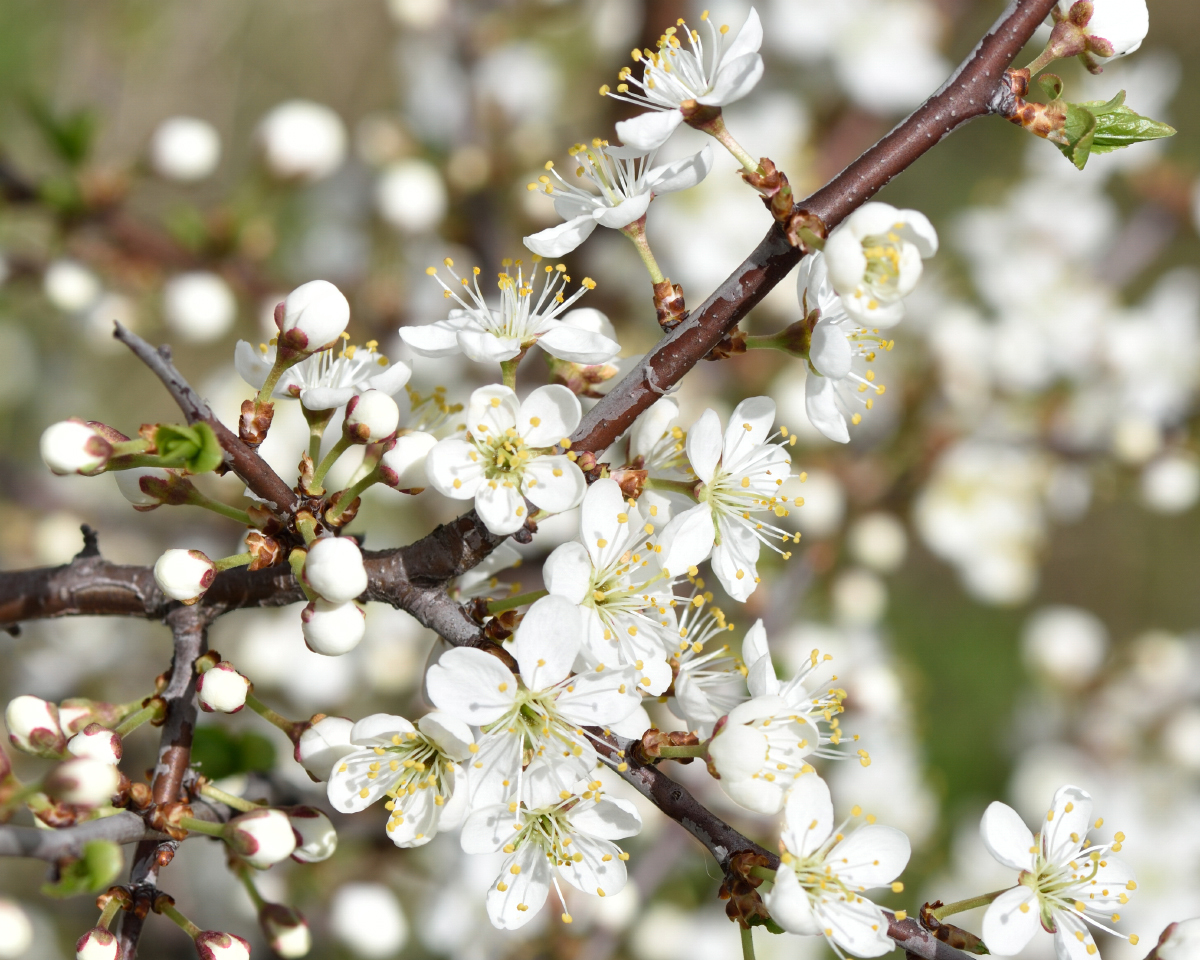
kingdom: Plantae
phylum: Tracheophyta
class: Magnoliopsida
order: Rosales
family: Rosaceae
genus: Prunus
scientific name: Prunus spinosa
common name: Blackthorn
